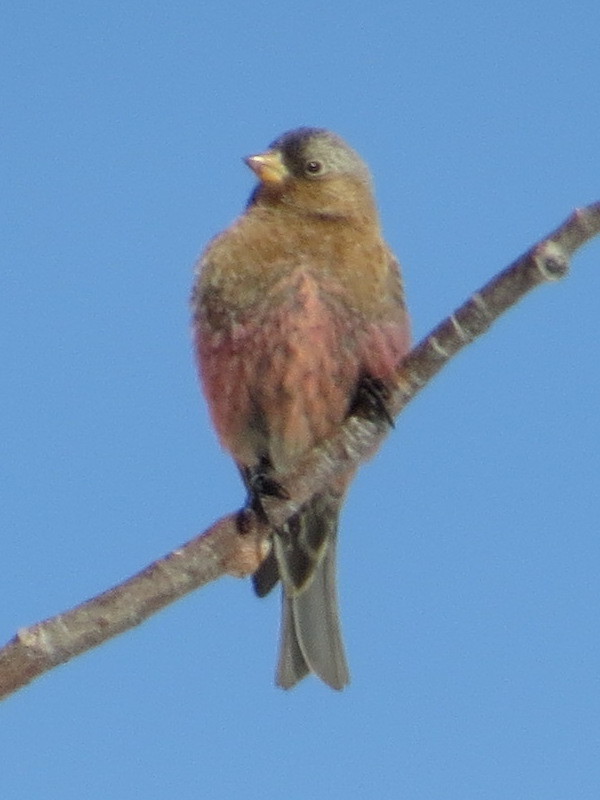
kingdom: Animalia
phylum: Chordata
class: Aves
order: Passeriformes
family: Fringillidae
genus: Leucosticte
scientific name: Leucosticte australis
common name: Brown-capped rosy-finch
